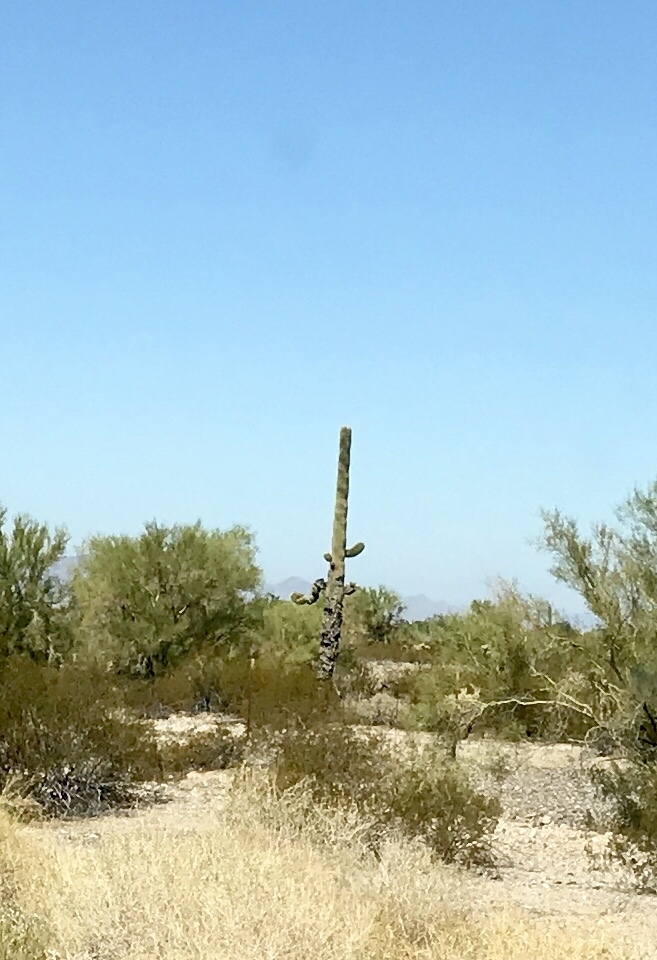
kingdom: Plantae
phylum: Tracheophyta
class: Magnoliopsida
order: Caryophyllales
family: Cactaceae
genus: Carnegiea
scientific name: Carnegiea gigantea
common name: Saguaro
